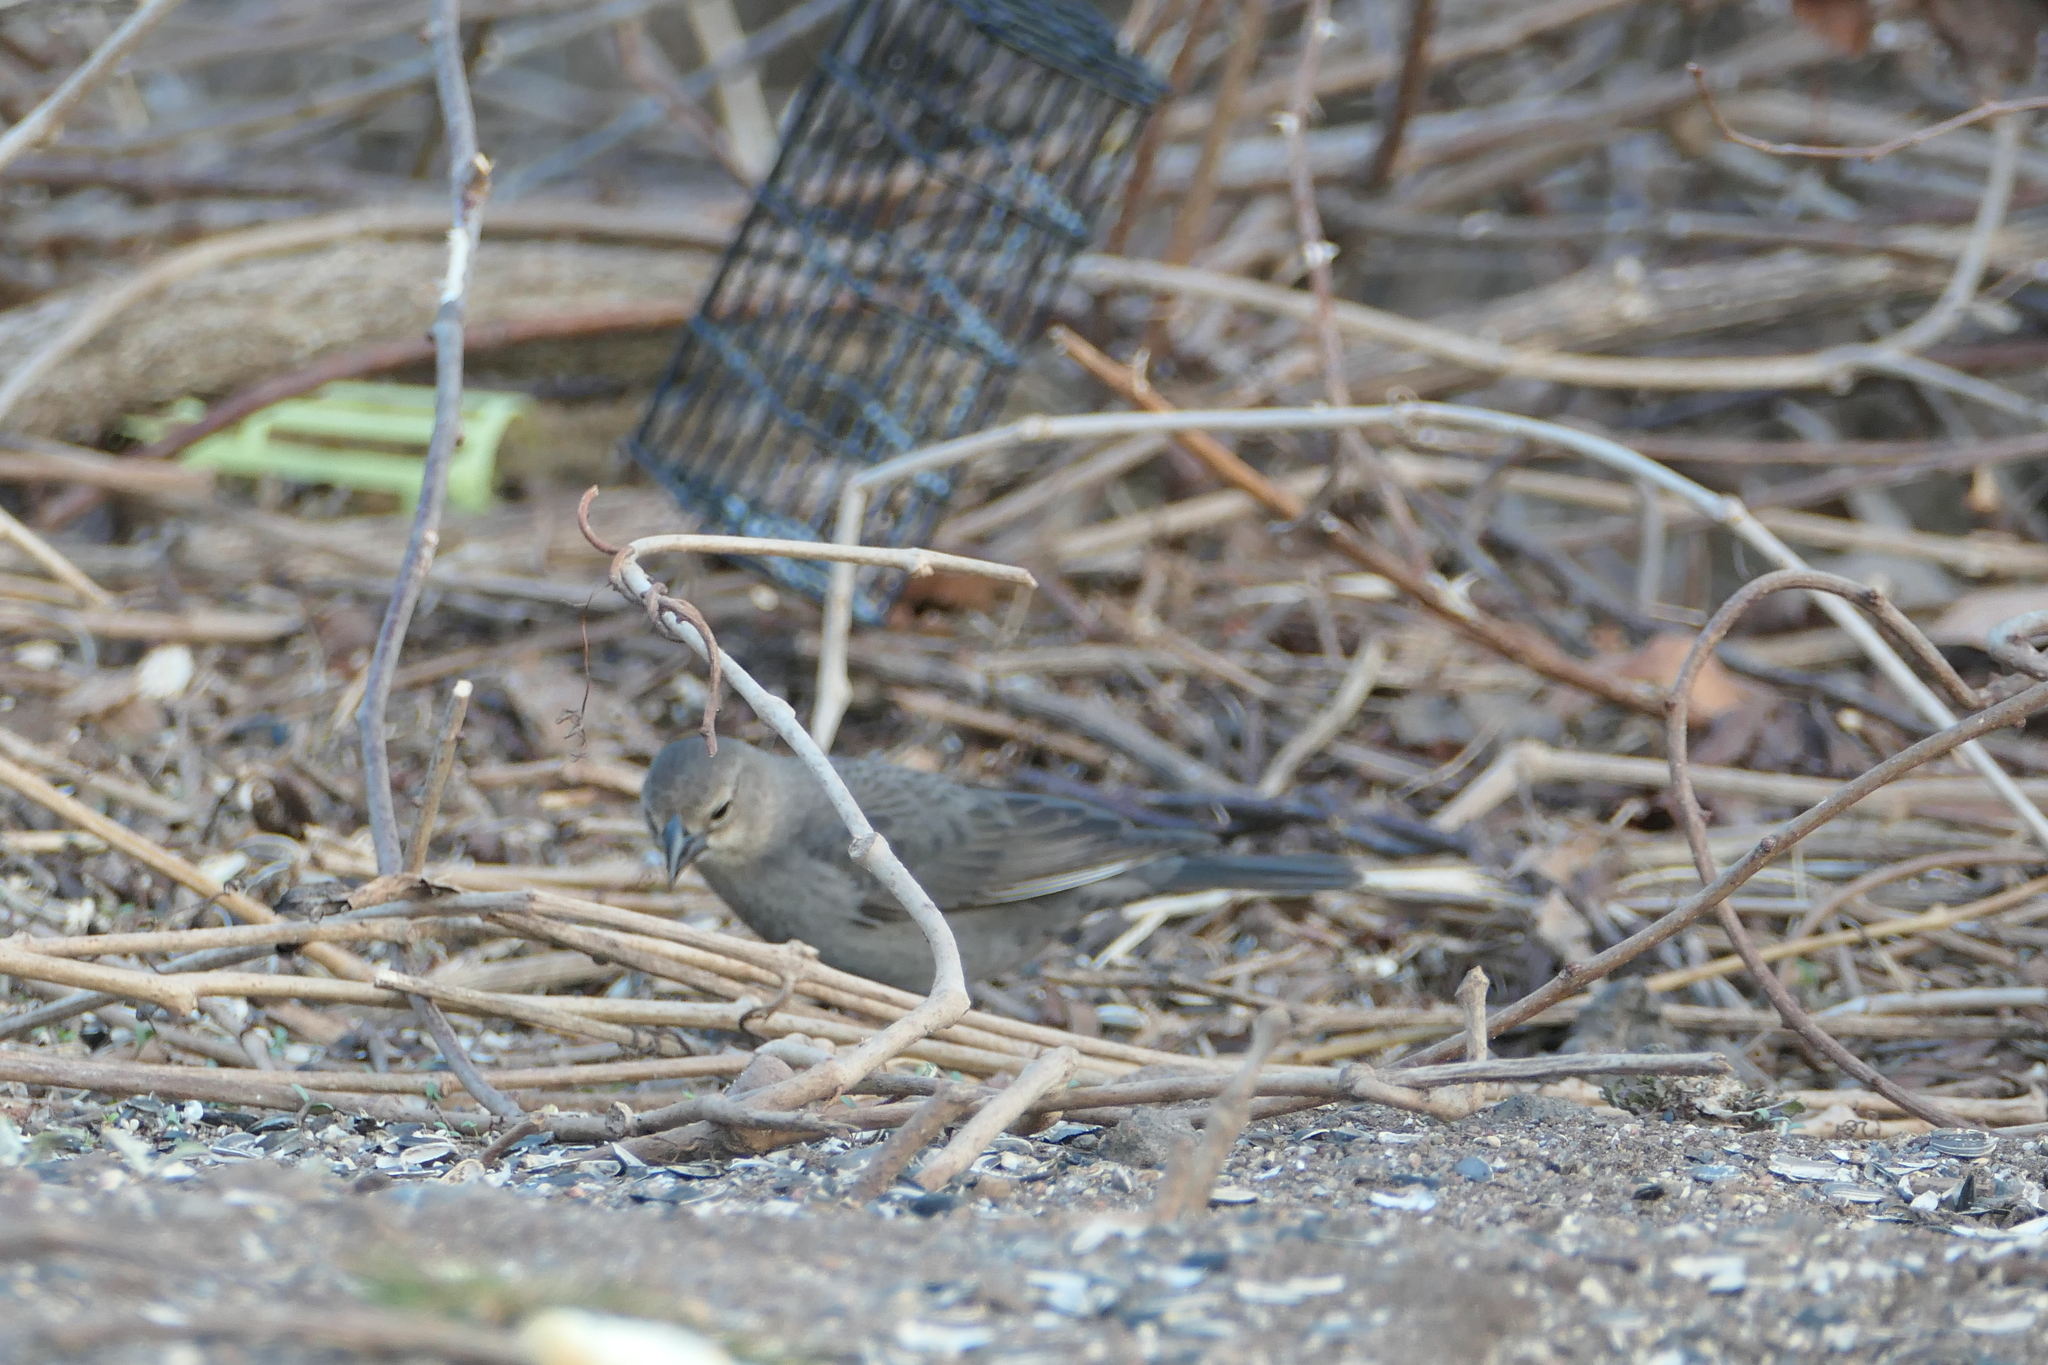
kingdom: Animalia
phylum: Chordata
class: Aves
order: Passeriformes
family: Icteridae
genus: Molothrus
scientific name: Molothrus ater
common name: Brown-headed cowbird
